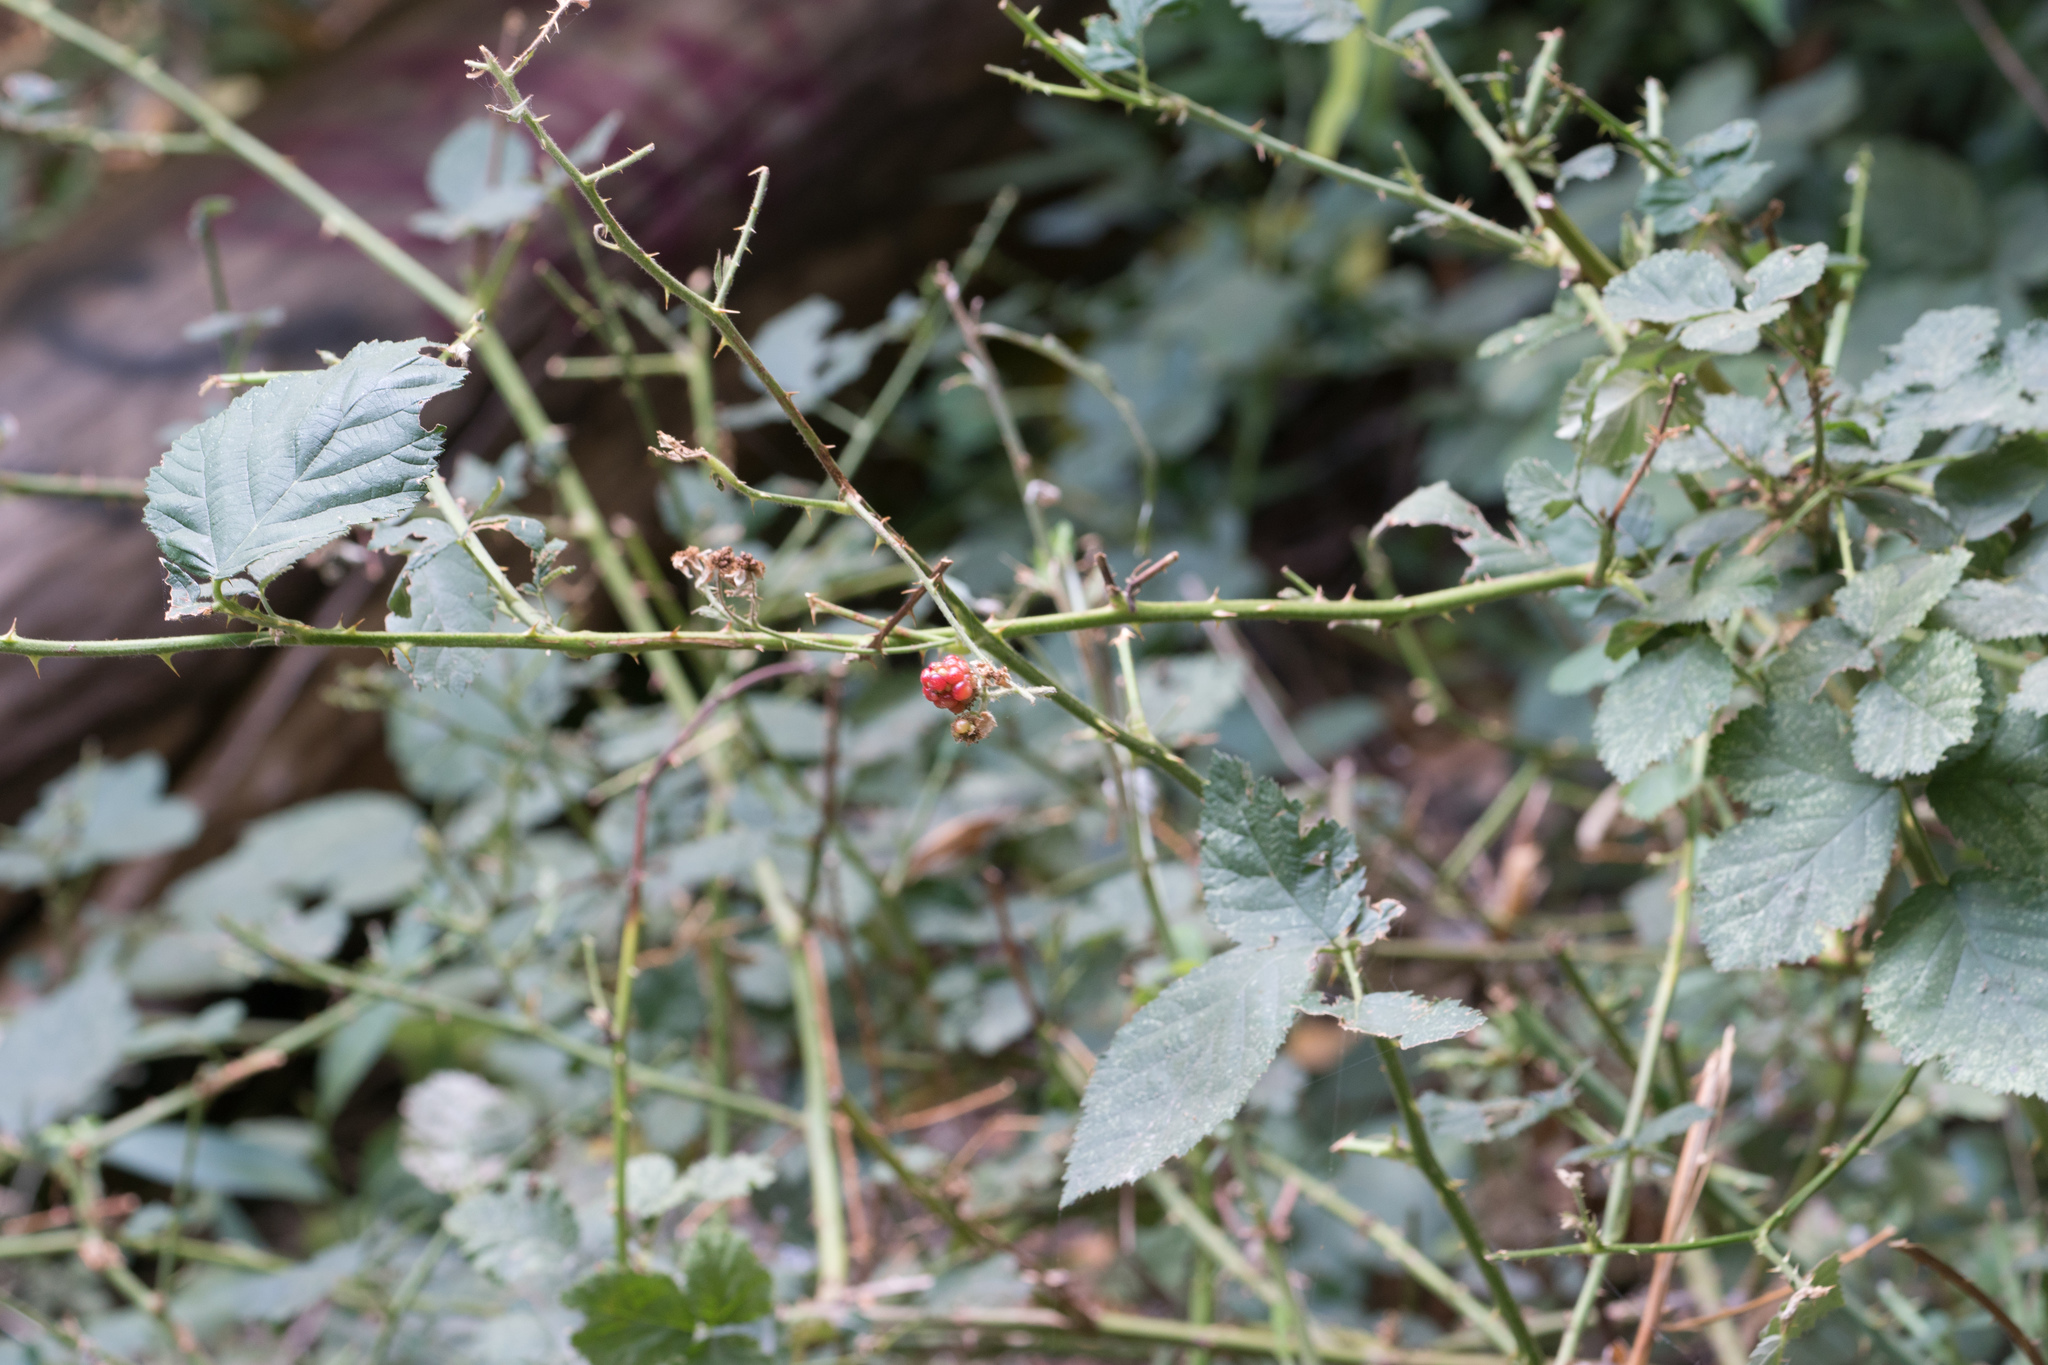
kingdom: Plantae
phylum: Tracheophyta
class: Magnoliopsida
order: Rosales
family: Rosaceae
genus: Rubus
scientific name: Rubus armeniacus
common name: Himalayan blackberry
